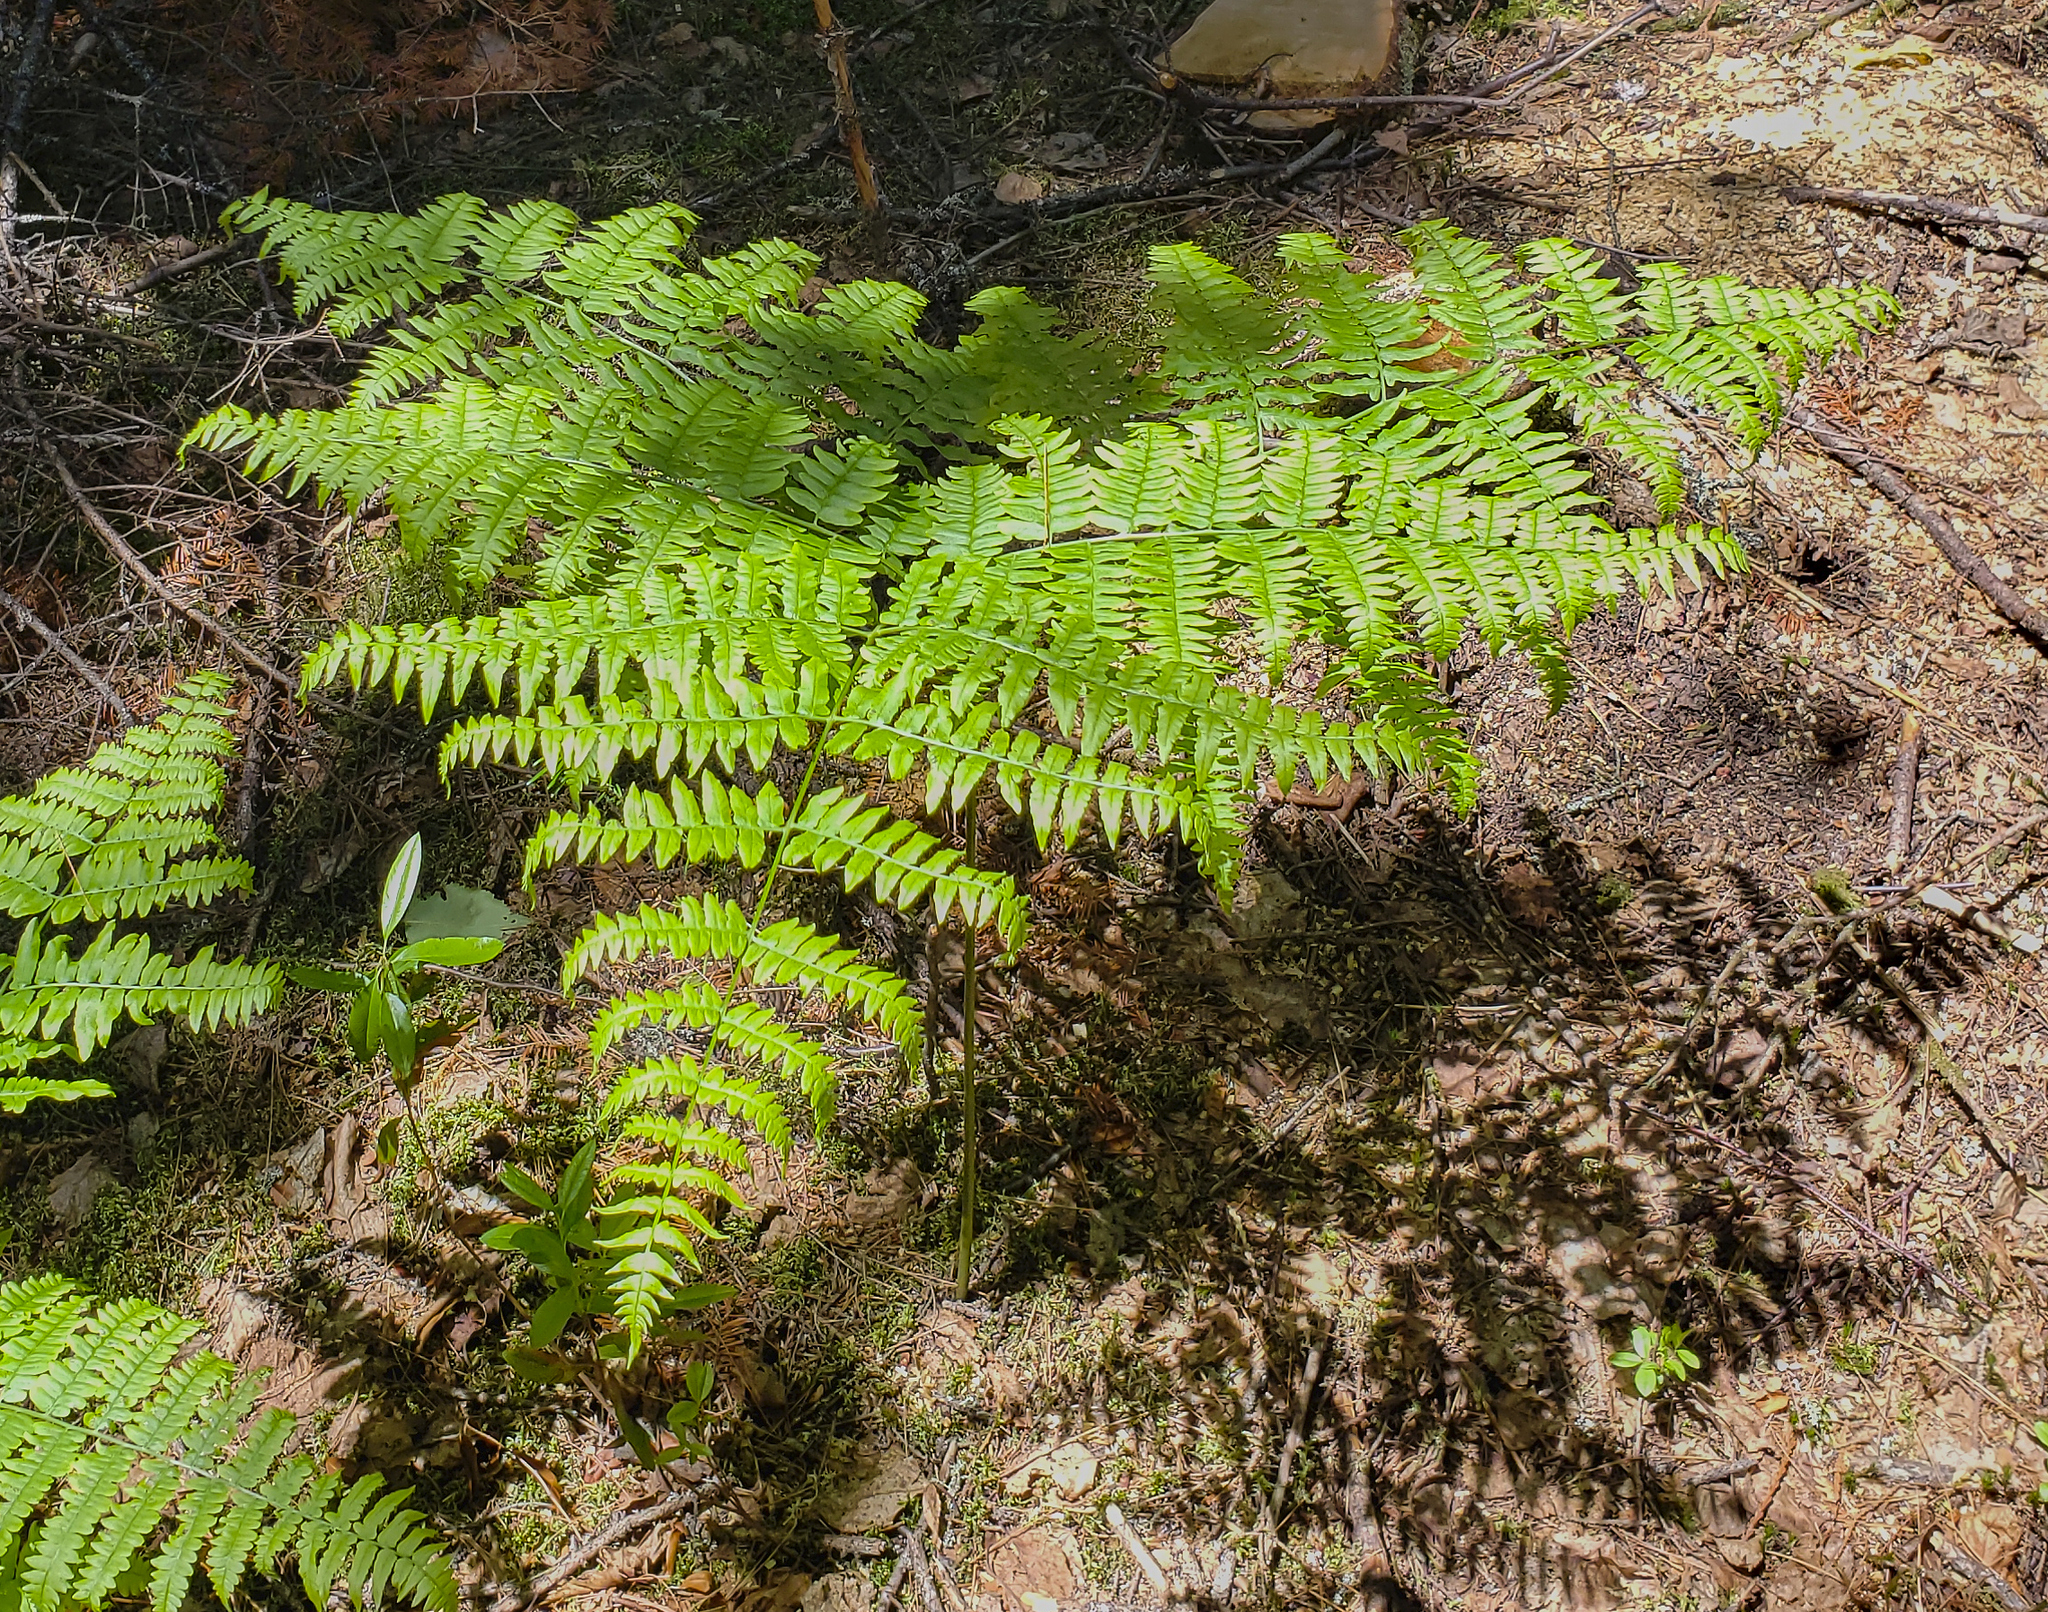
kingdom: Plantae
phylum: Tracheophyta
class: Polypodiopsida
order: Polypodiales
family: Dennstaedtiaceae
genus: Pteridium
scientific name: Pteridium aquilinum
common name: Bracken
